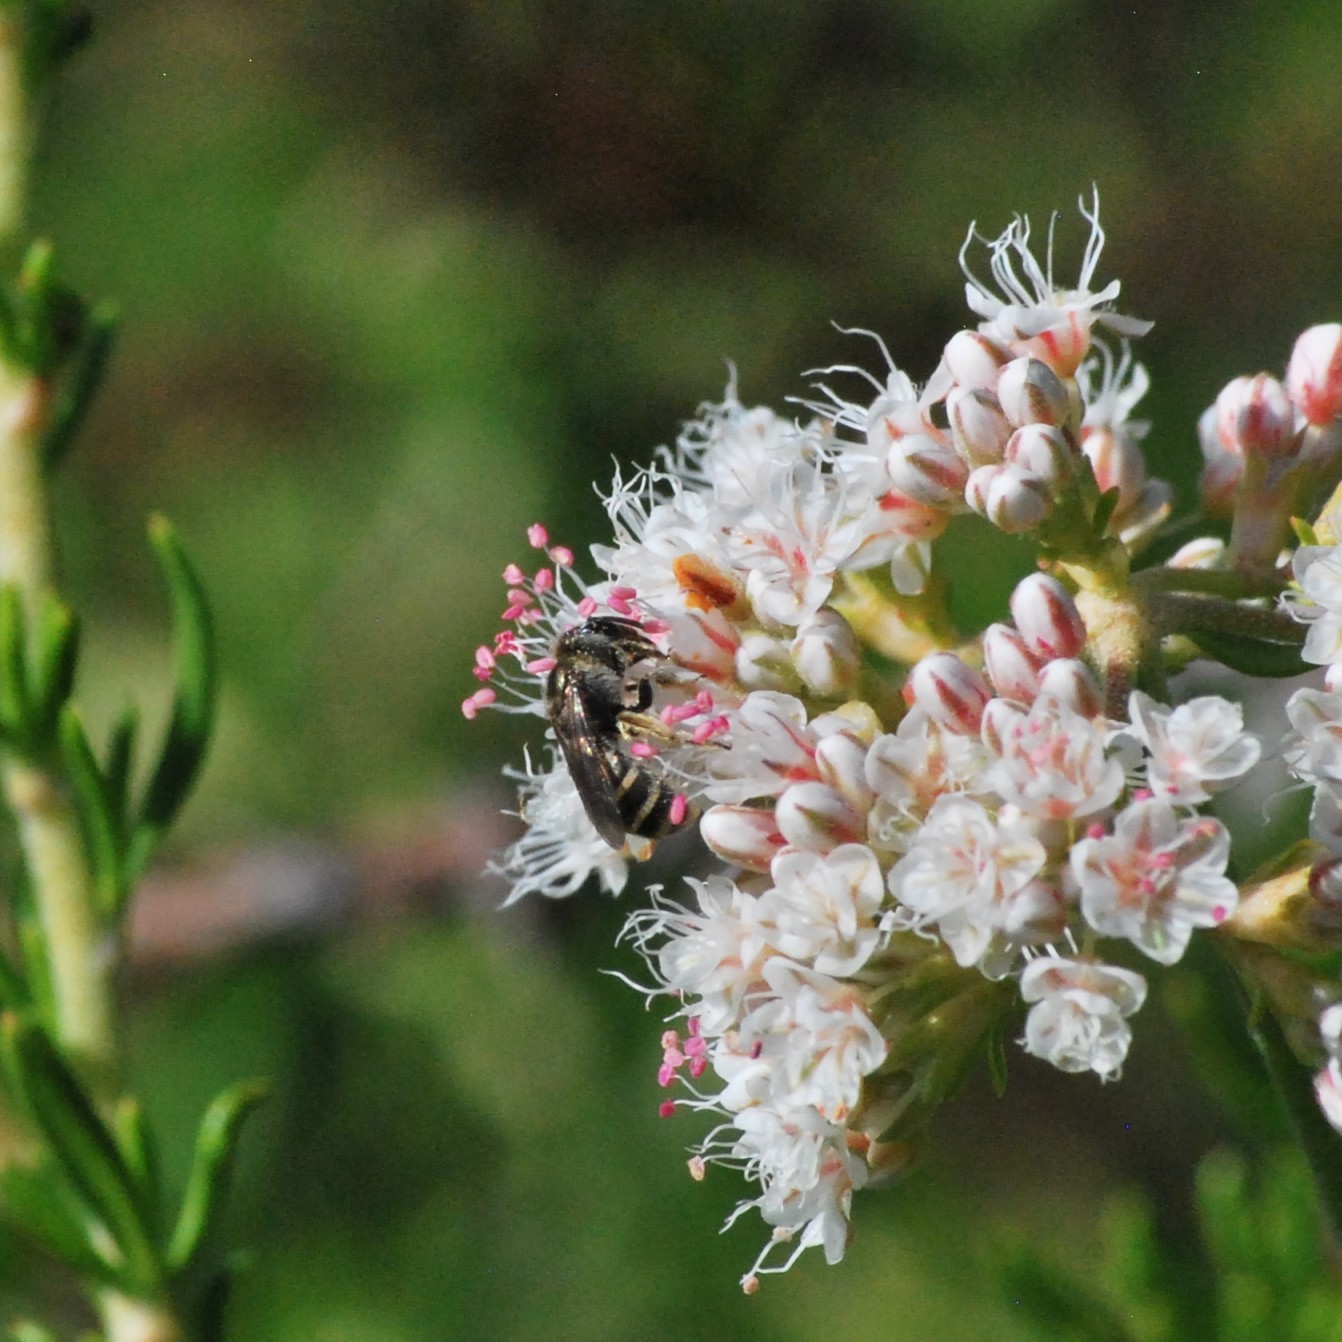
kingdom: Animalia
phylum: Arthropoda
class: Insecta
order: Hymenoptera
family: Halictidae
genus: Halictus
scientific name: Halictus tripartitus
